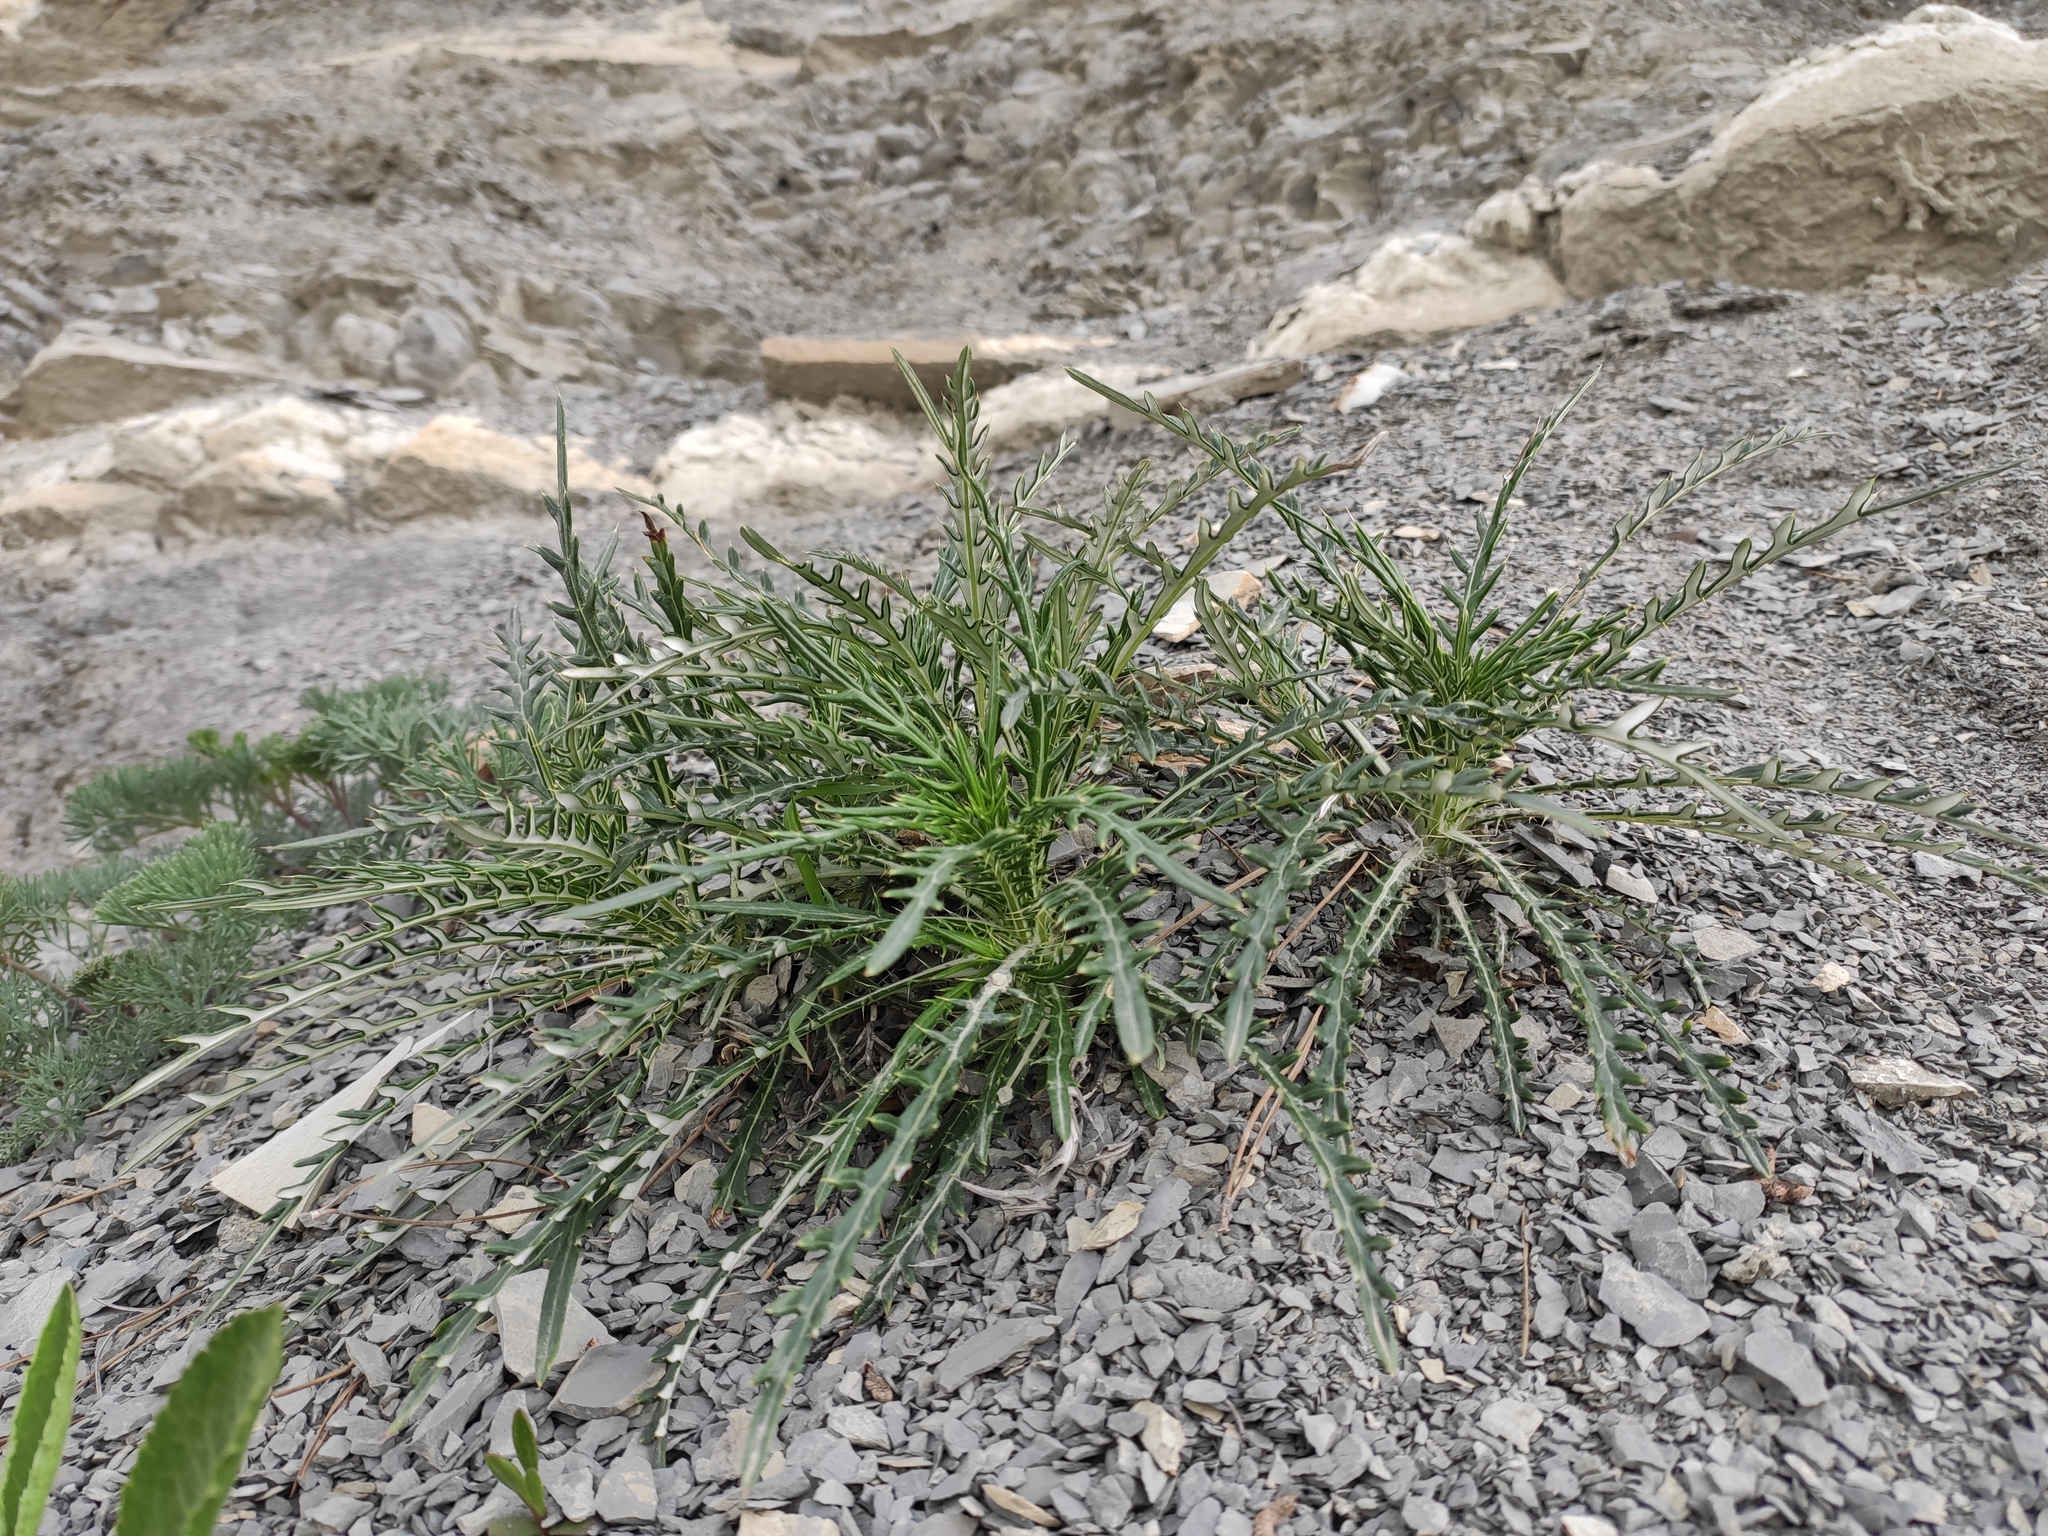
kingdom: Plantae
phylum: Tracheophyta
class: Magnoliopsida
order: Asterales
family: Asteraceae
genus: Ptilostemon
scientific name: Ptilostemon echinocephalus
